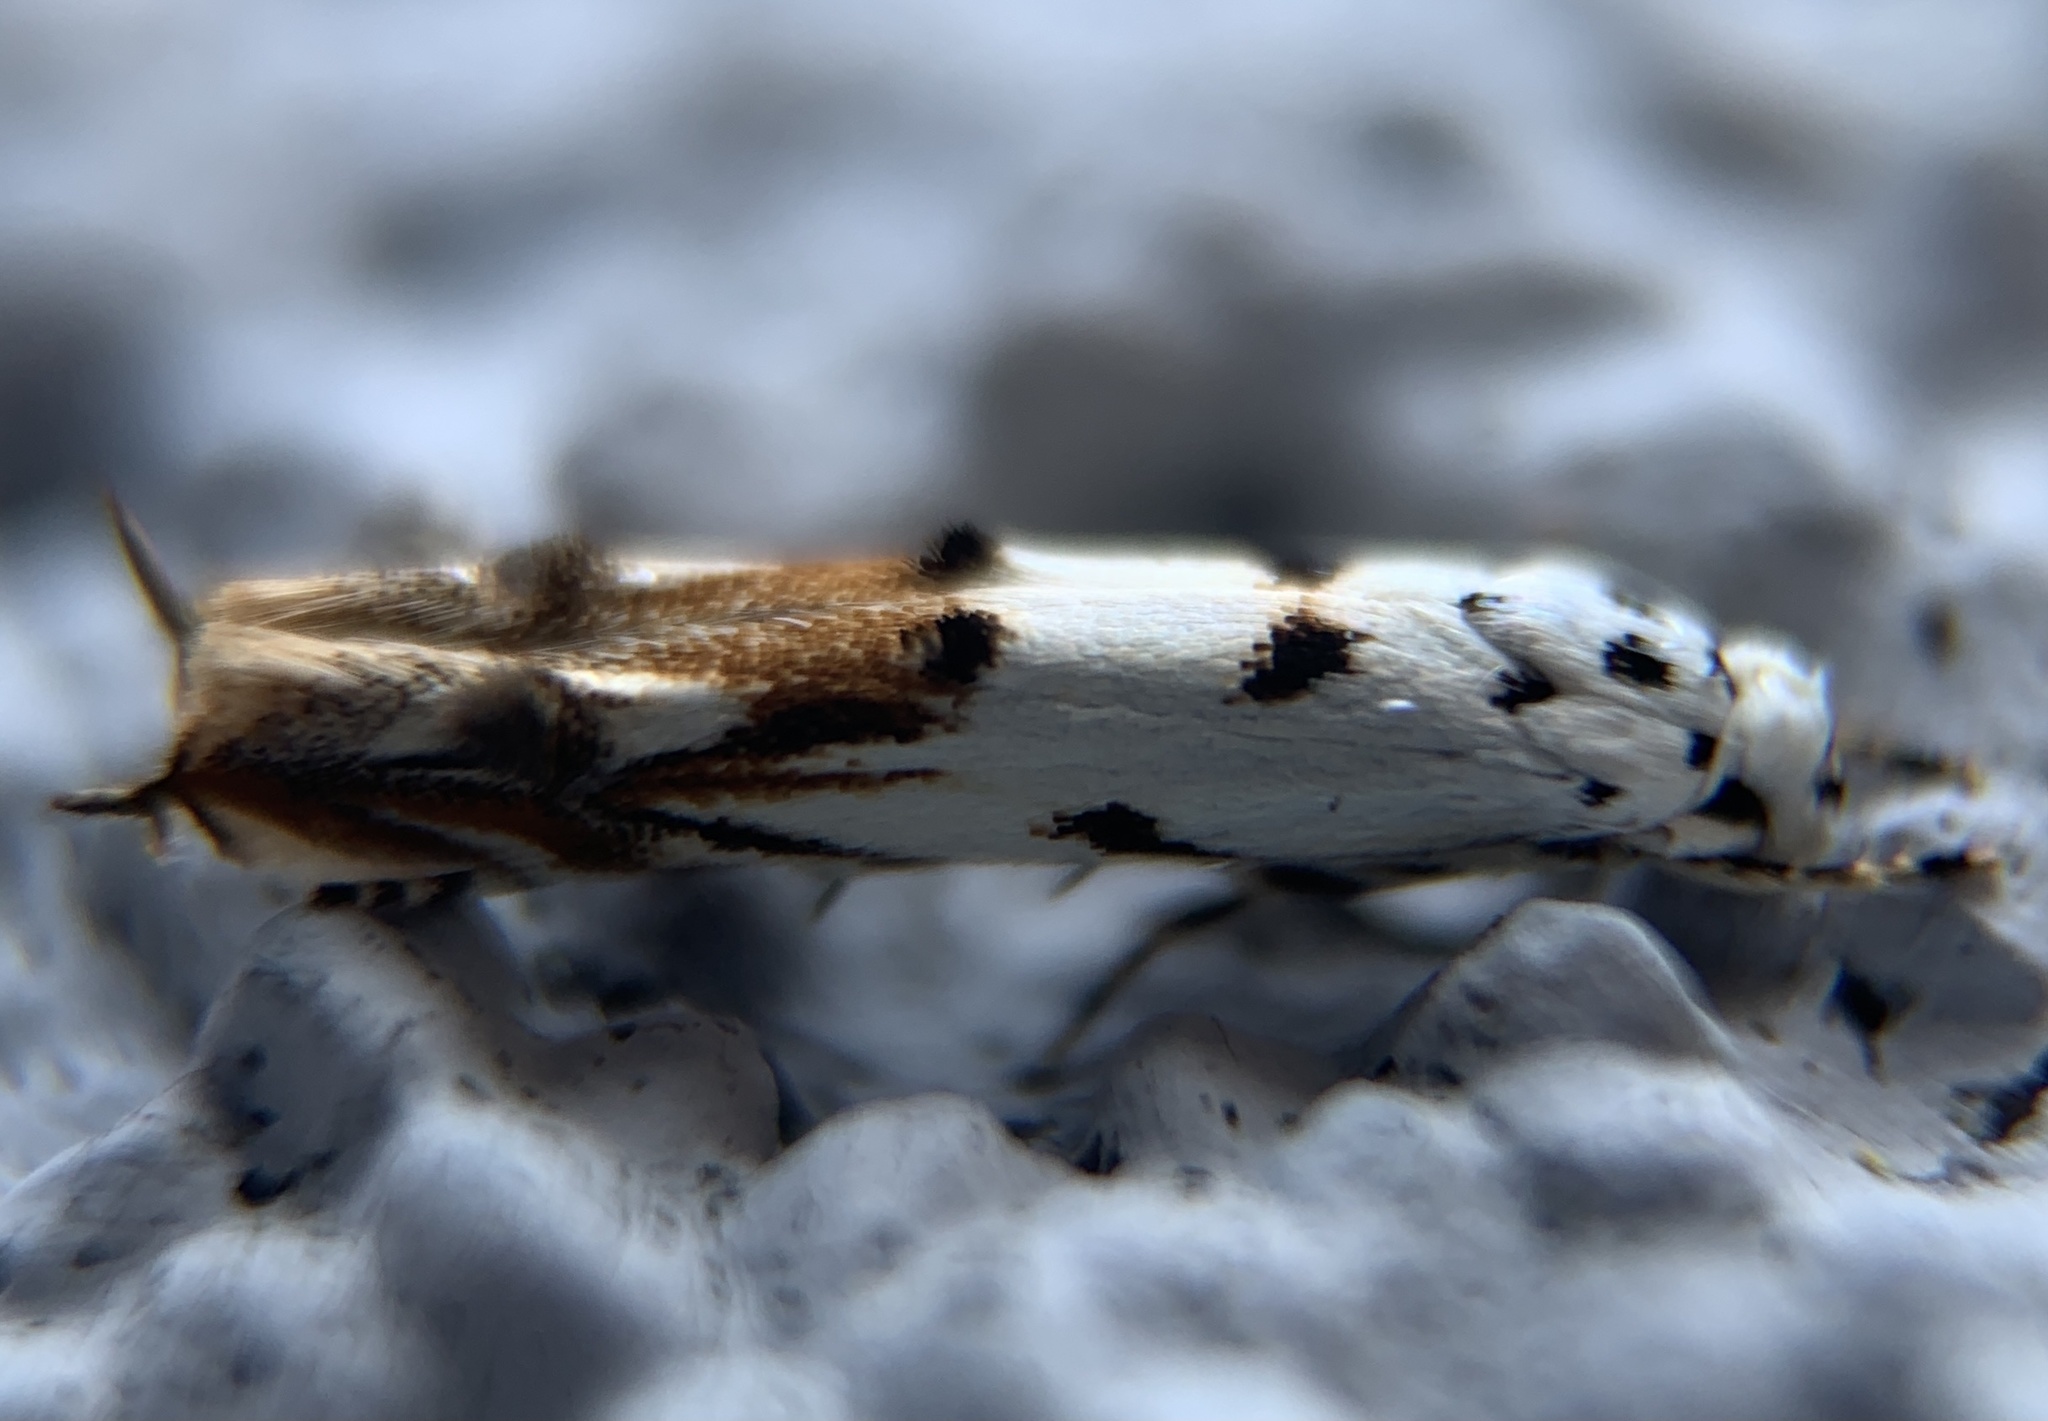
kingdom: Animalia
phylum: Arthropoda
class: Insecta
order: Lepidoptera
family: Momphidae
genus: Mompha
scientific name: Mompha eloisella
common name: Red-streaked mompha moth
